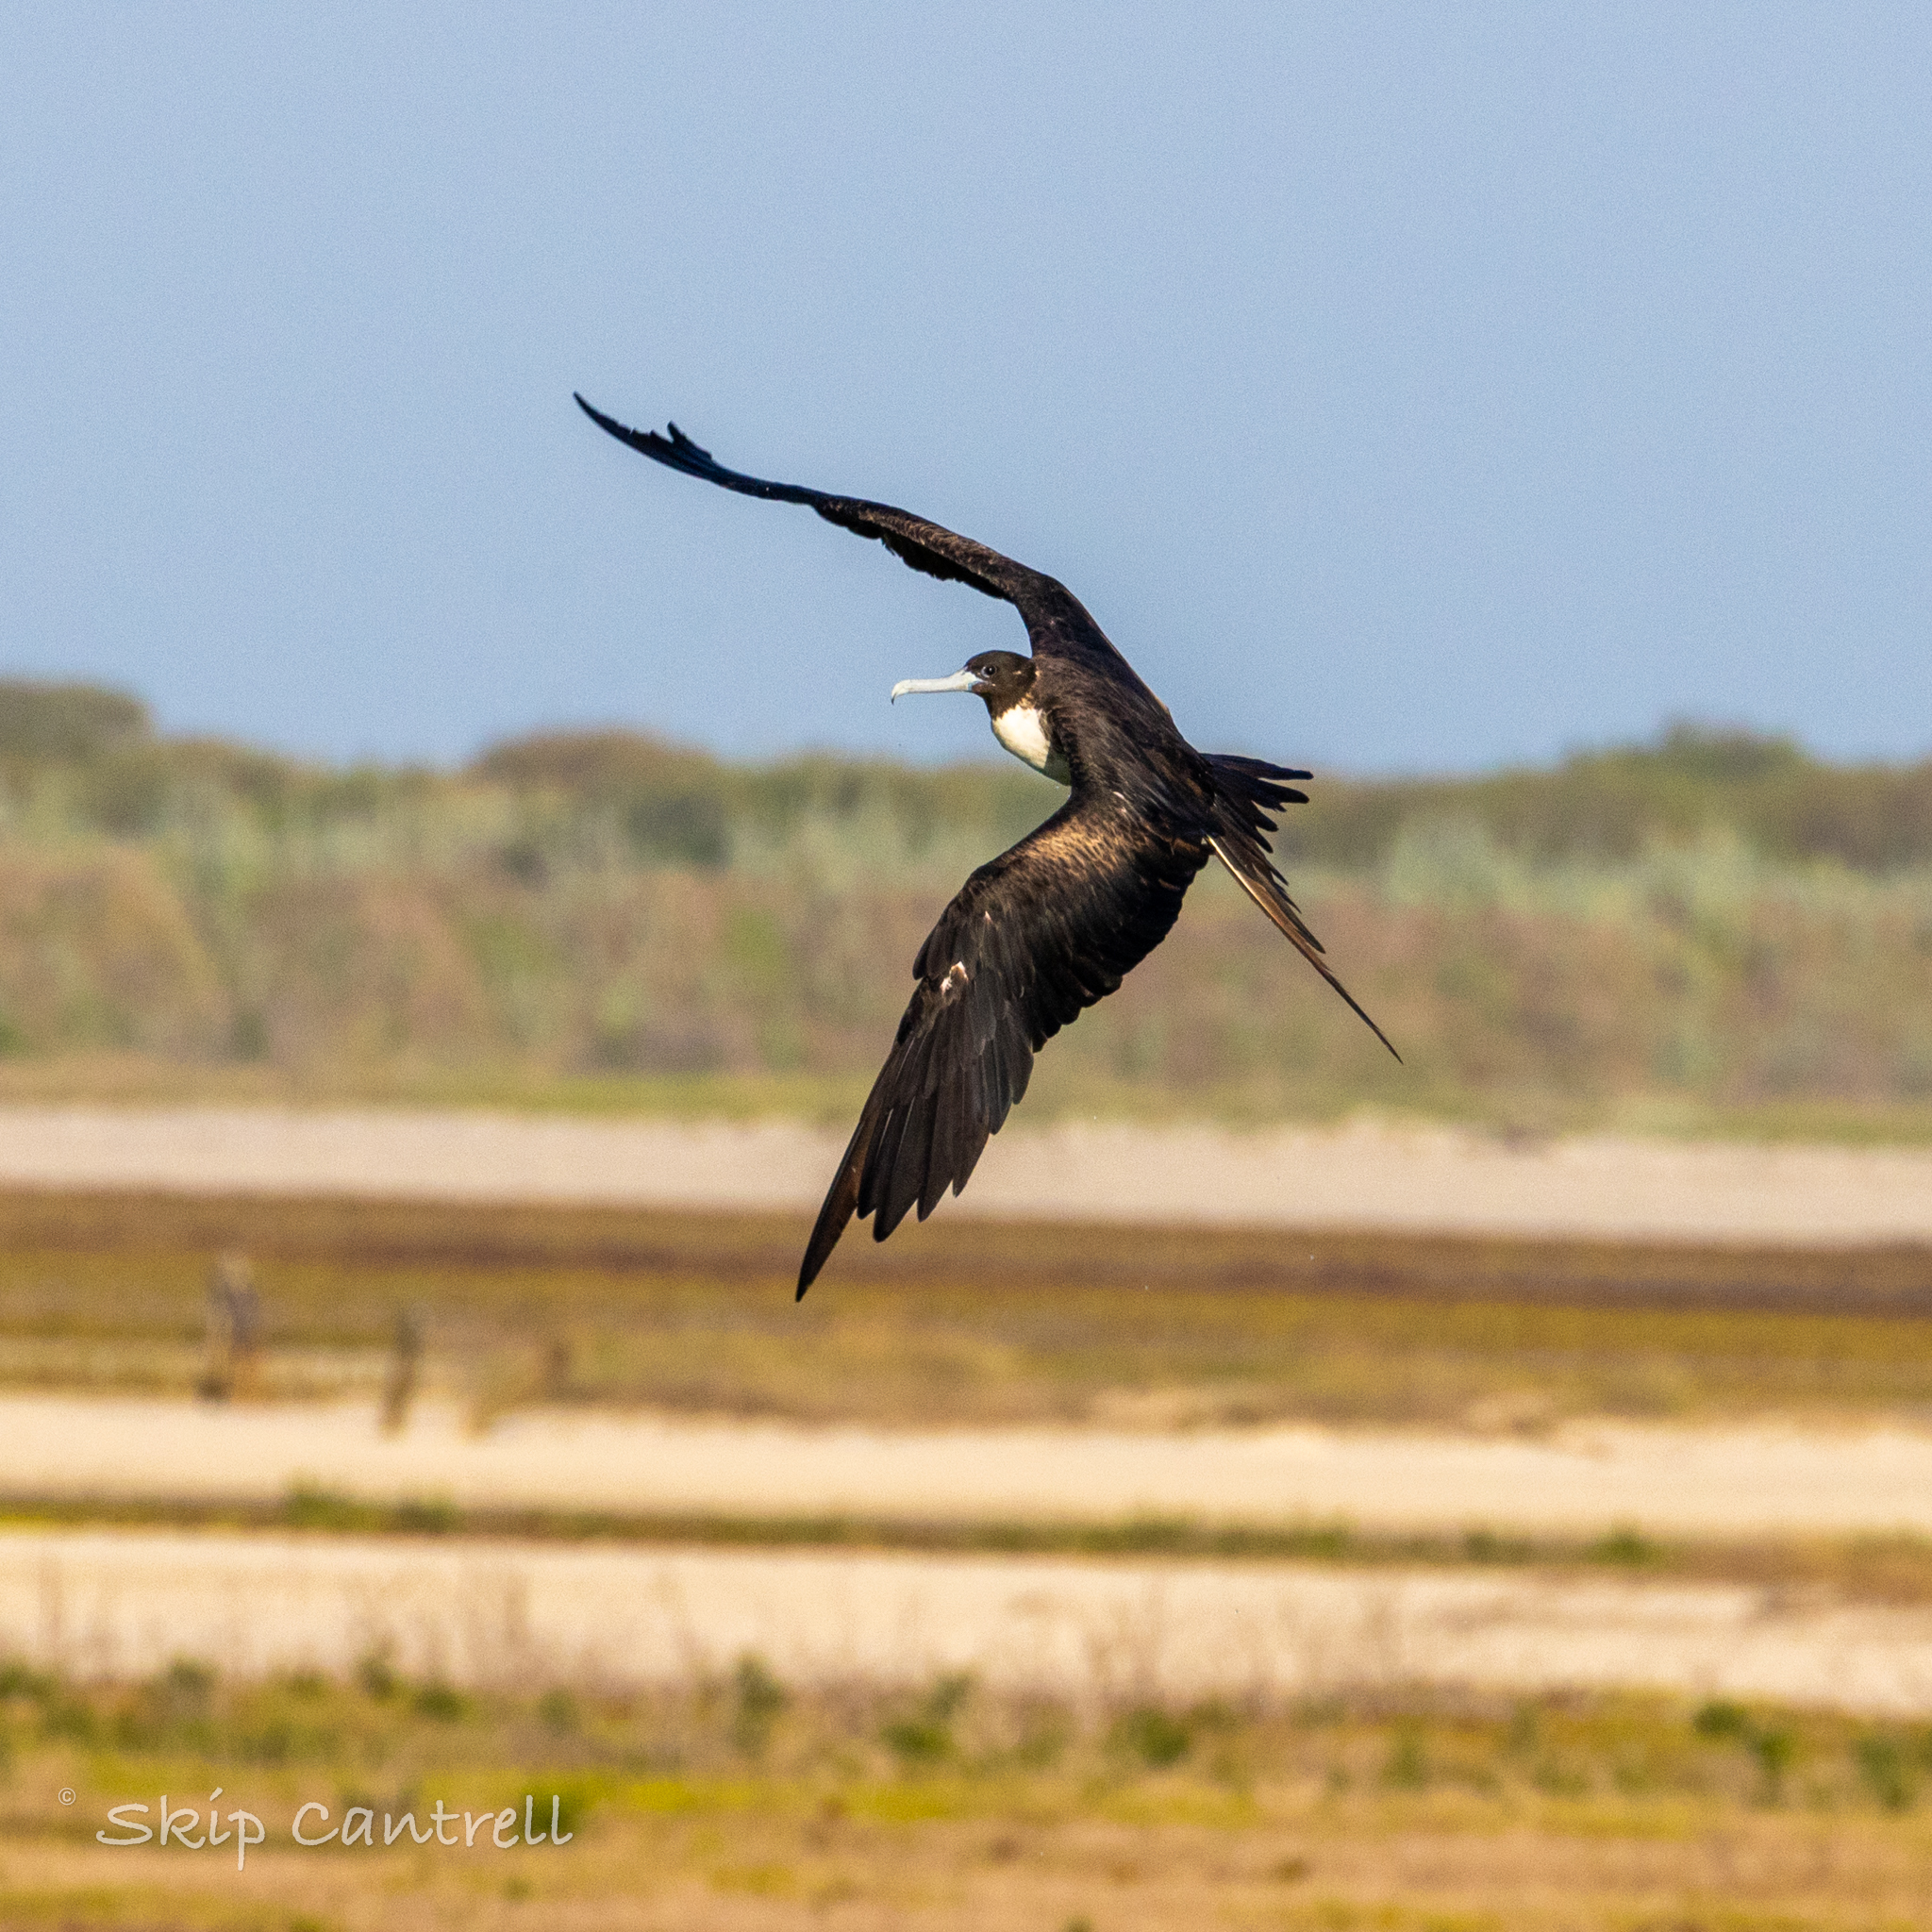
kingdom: Animalia
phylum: Chordata
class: Aves
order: Suliformes
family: Fregatidae
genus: Fregata
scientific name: Fregata magnificens
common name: Magnificent frigatebird
